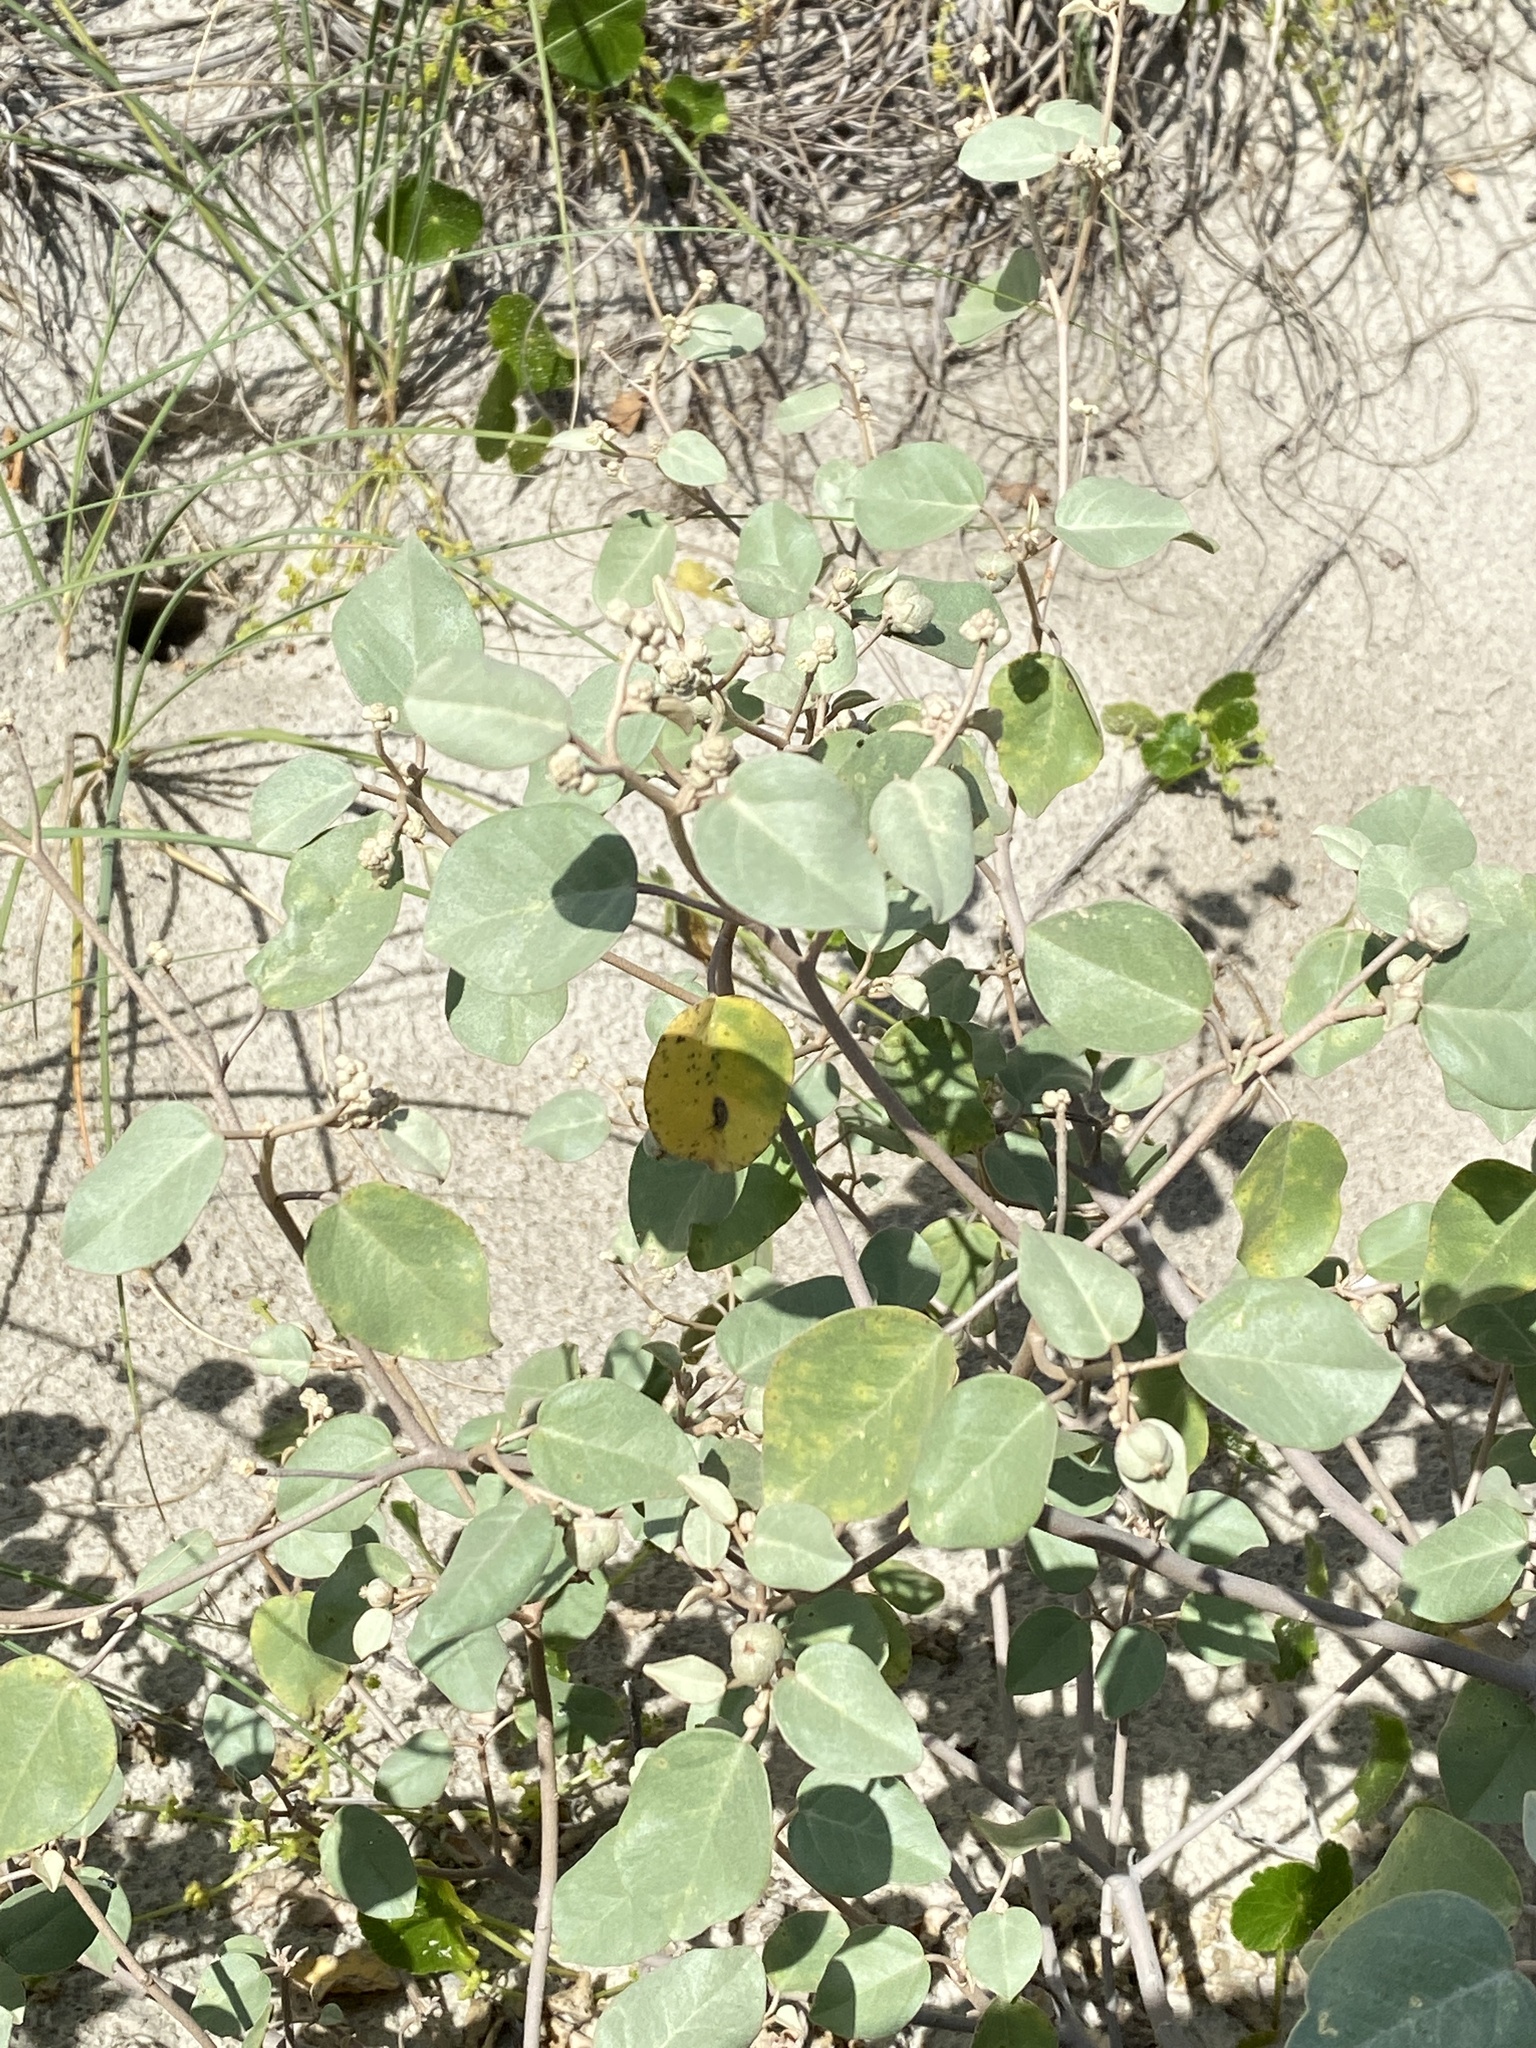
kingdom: Plantae
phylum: Tracheophyta
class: Magnoliopsida
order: Malpighiales
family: Euphorbiaceae
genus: Croton
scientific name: Croton punctatus
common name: Beach-tea
